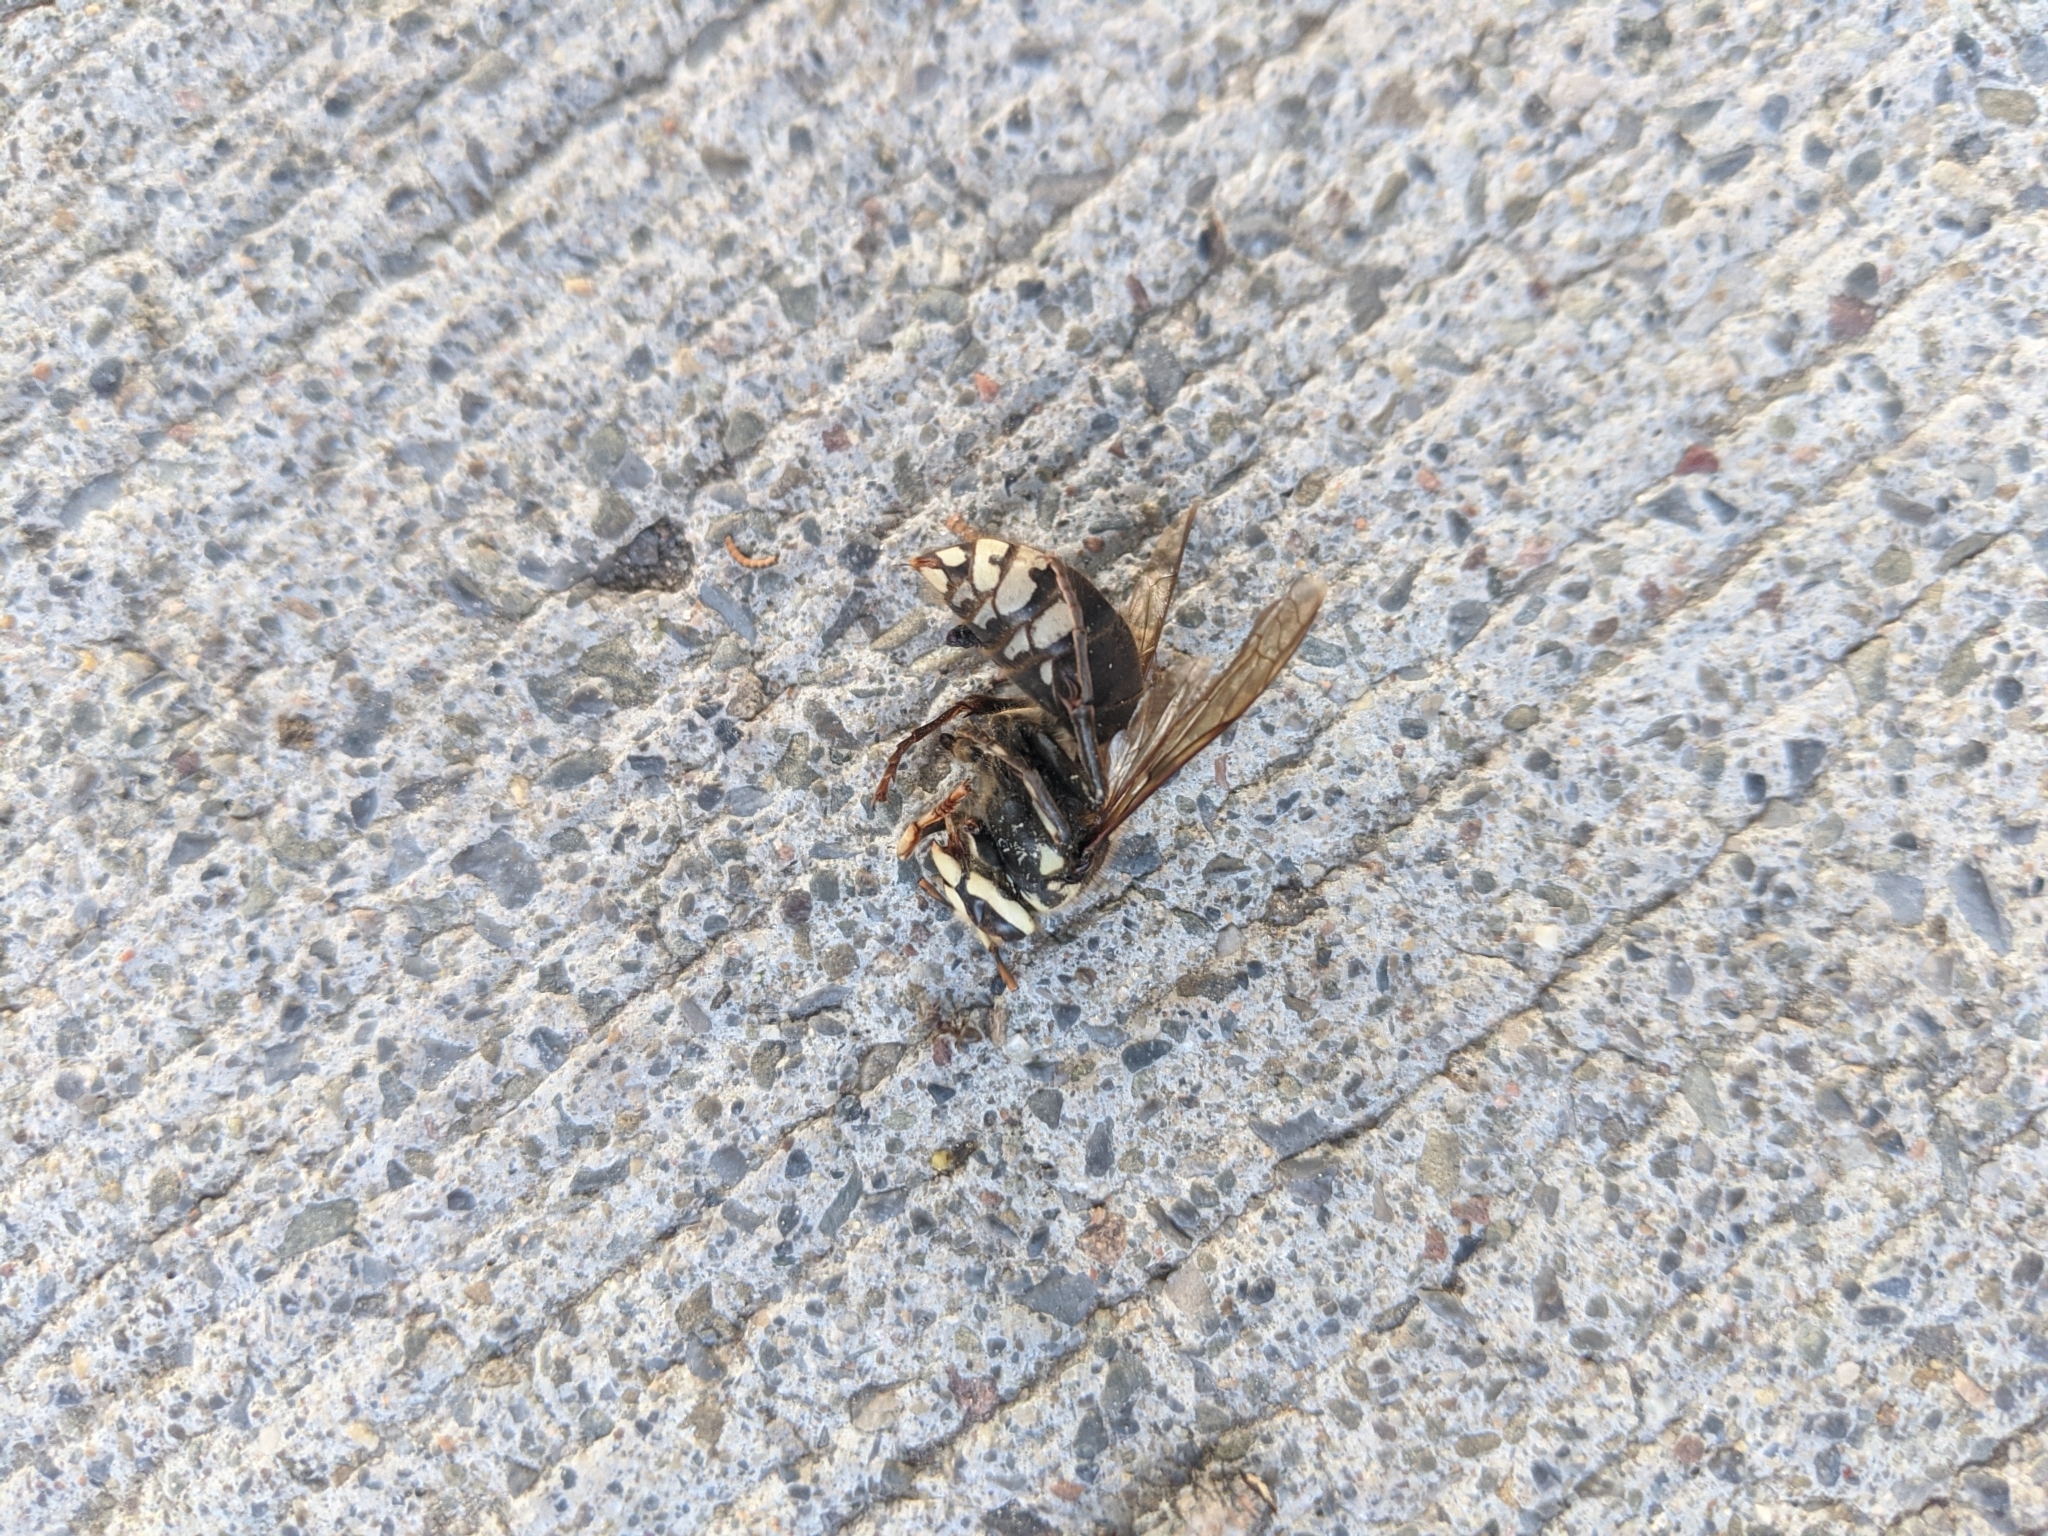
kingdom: Animalia
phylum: Arthropoda
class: Insecta
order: Hymenoptera
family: Vespidae
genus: Dolichovespula
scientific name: Dolichovespula maculata
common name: Bald-faced hornet
